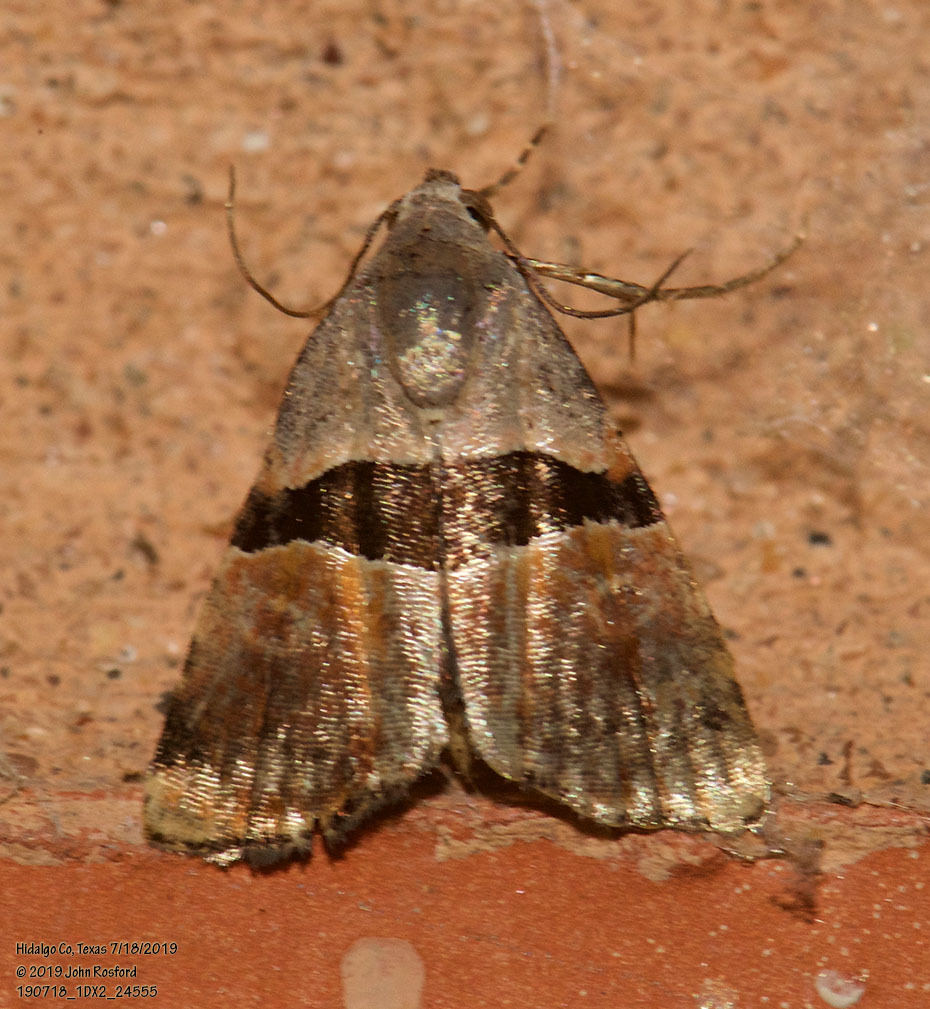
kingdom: Animalia
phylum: Arthropoda
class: Insecta
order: Lepidoptera
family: Noctuidae
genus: Cobubatha
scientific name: Cobubatha lixiva
